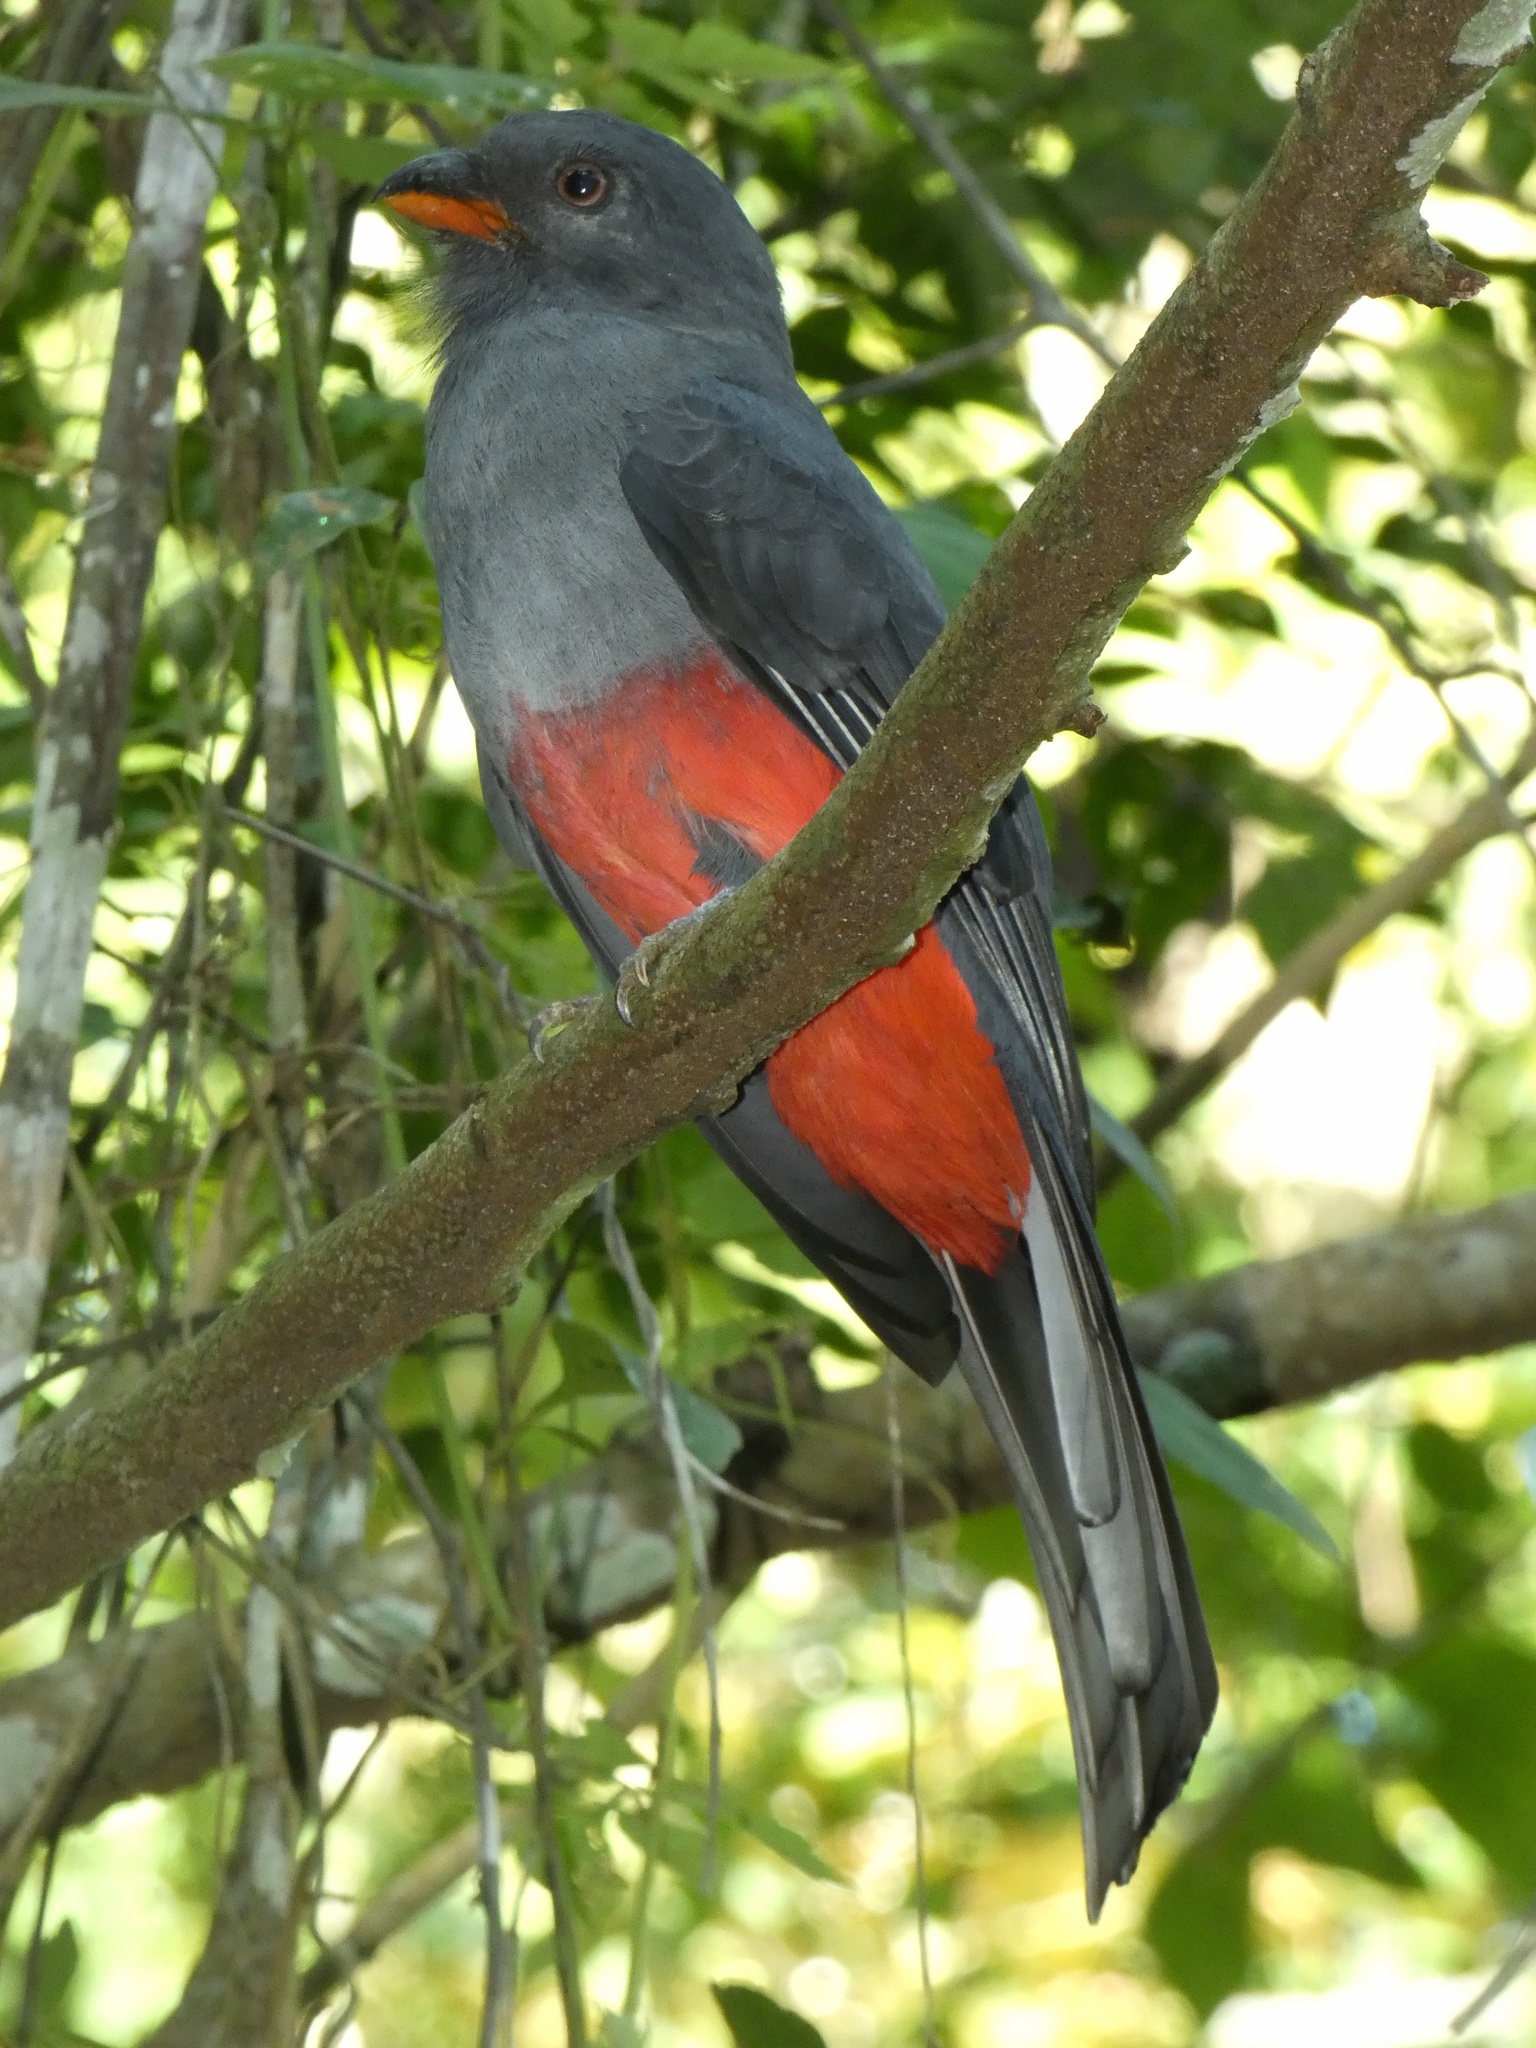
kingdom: Animalia
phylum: Chordata
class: Aves
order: Trogoniformes
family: Trogonidae
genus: Trogon
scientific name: Trogon massena
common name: Slaty-tailed trogon
